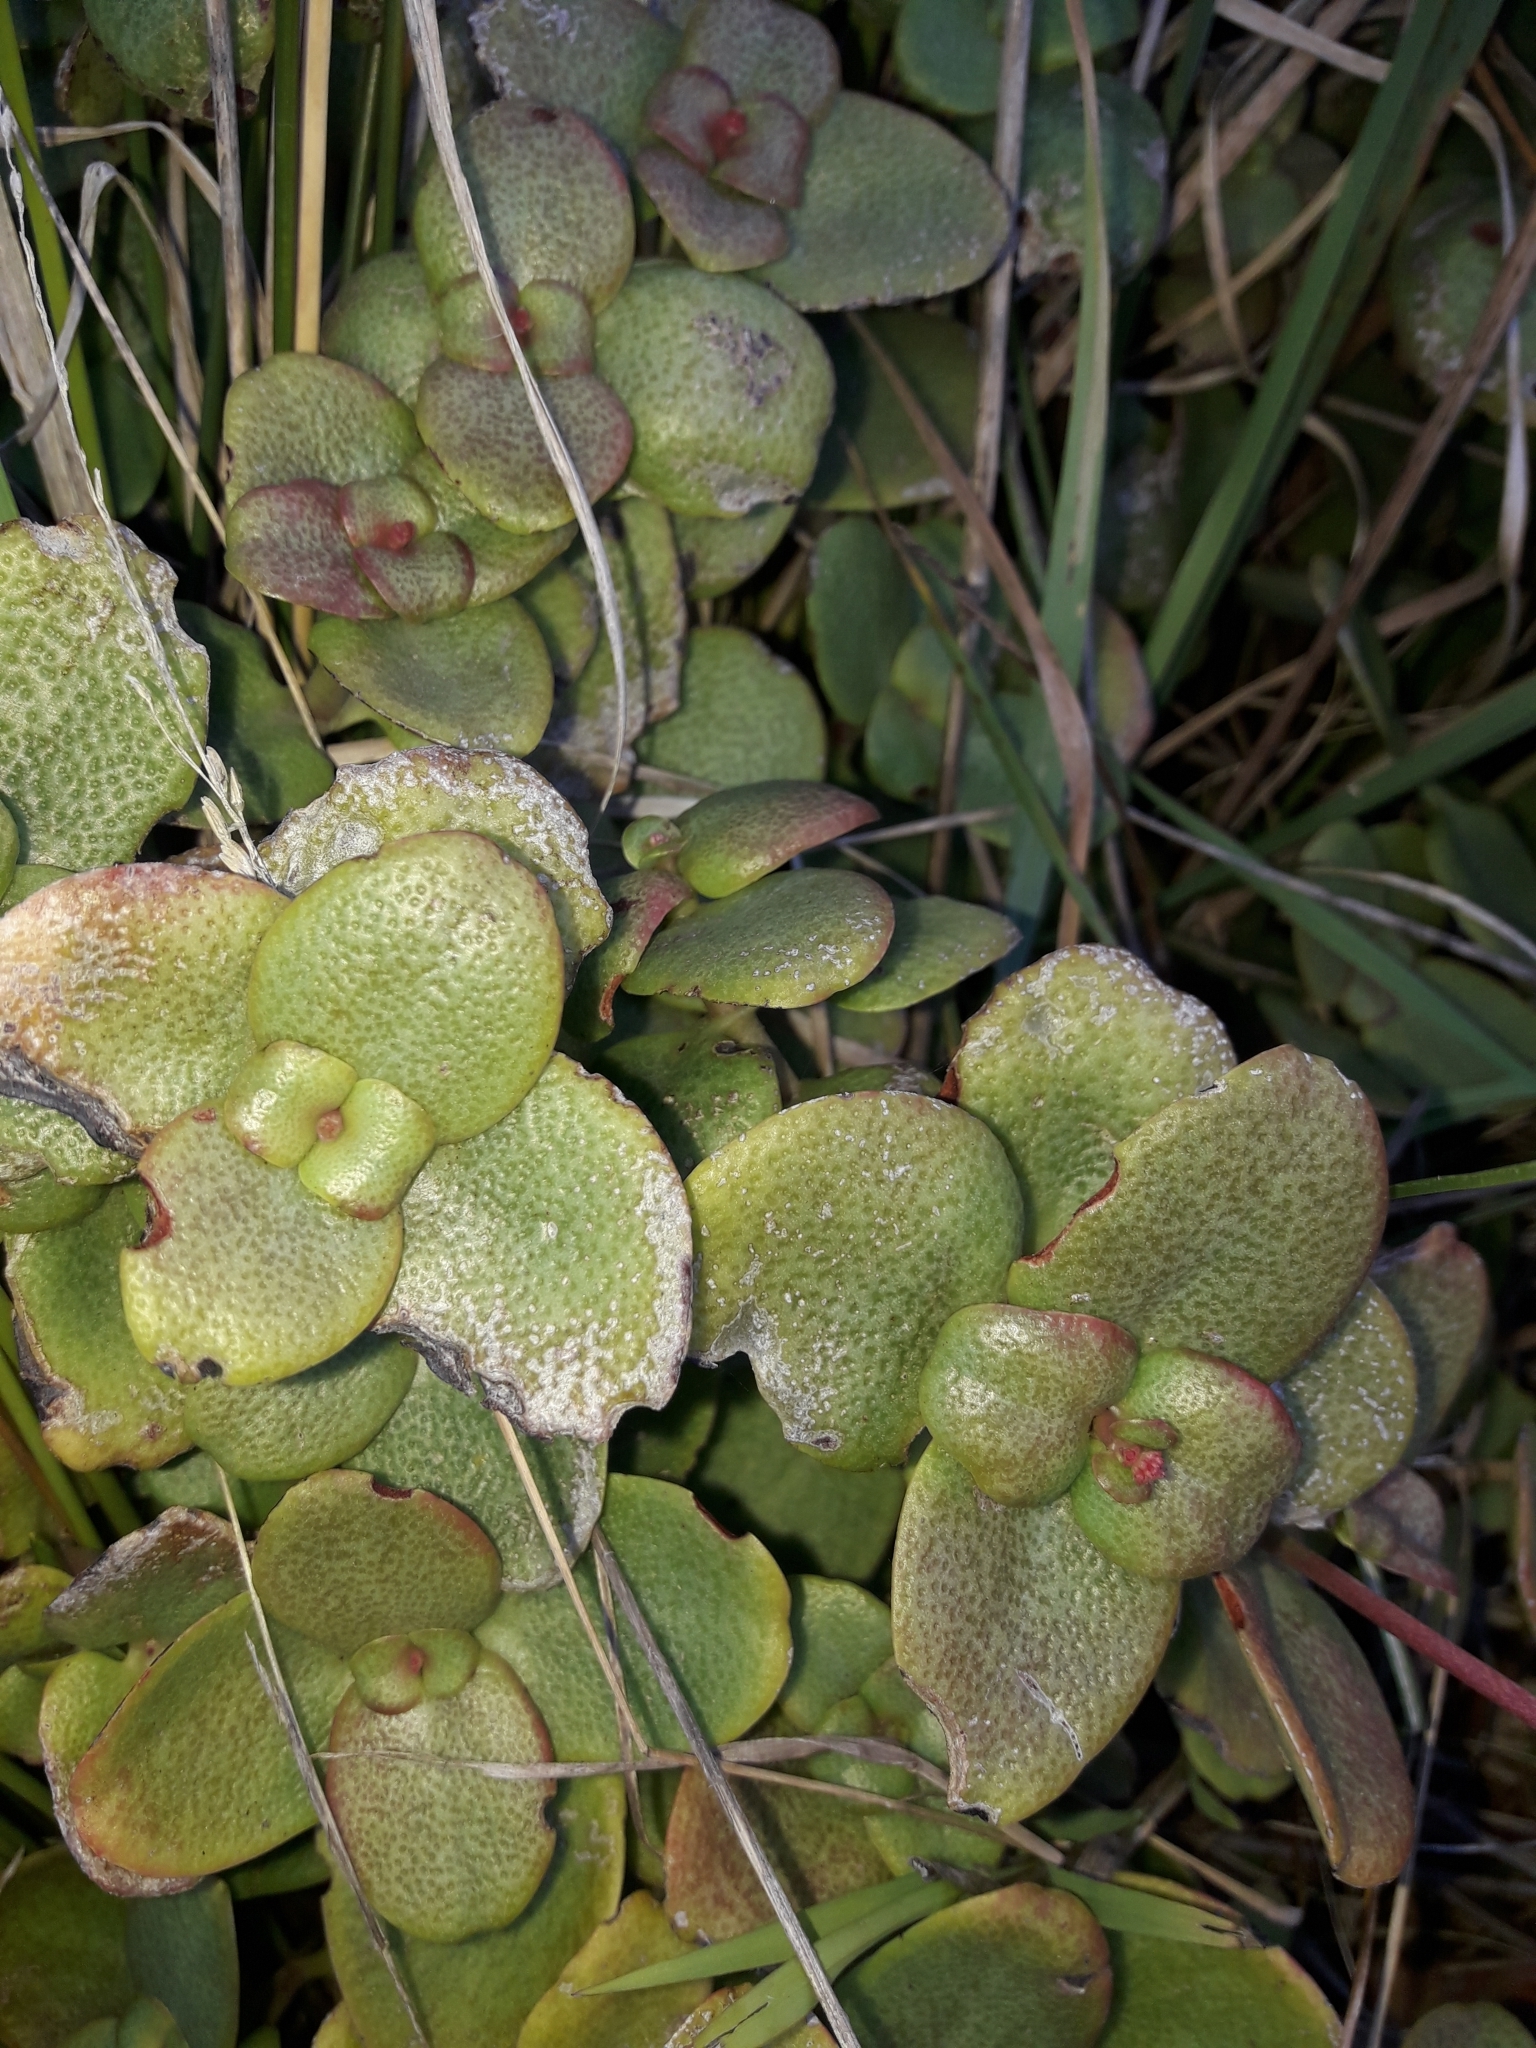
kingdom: Plantae
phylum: Tracheophyta
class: Magnoliopsida
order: Saxifragales
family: Crassulaceae
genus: Crassula
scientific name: Crassula multicava
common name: Cape province pygmyweed
